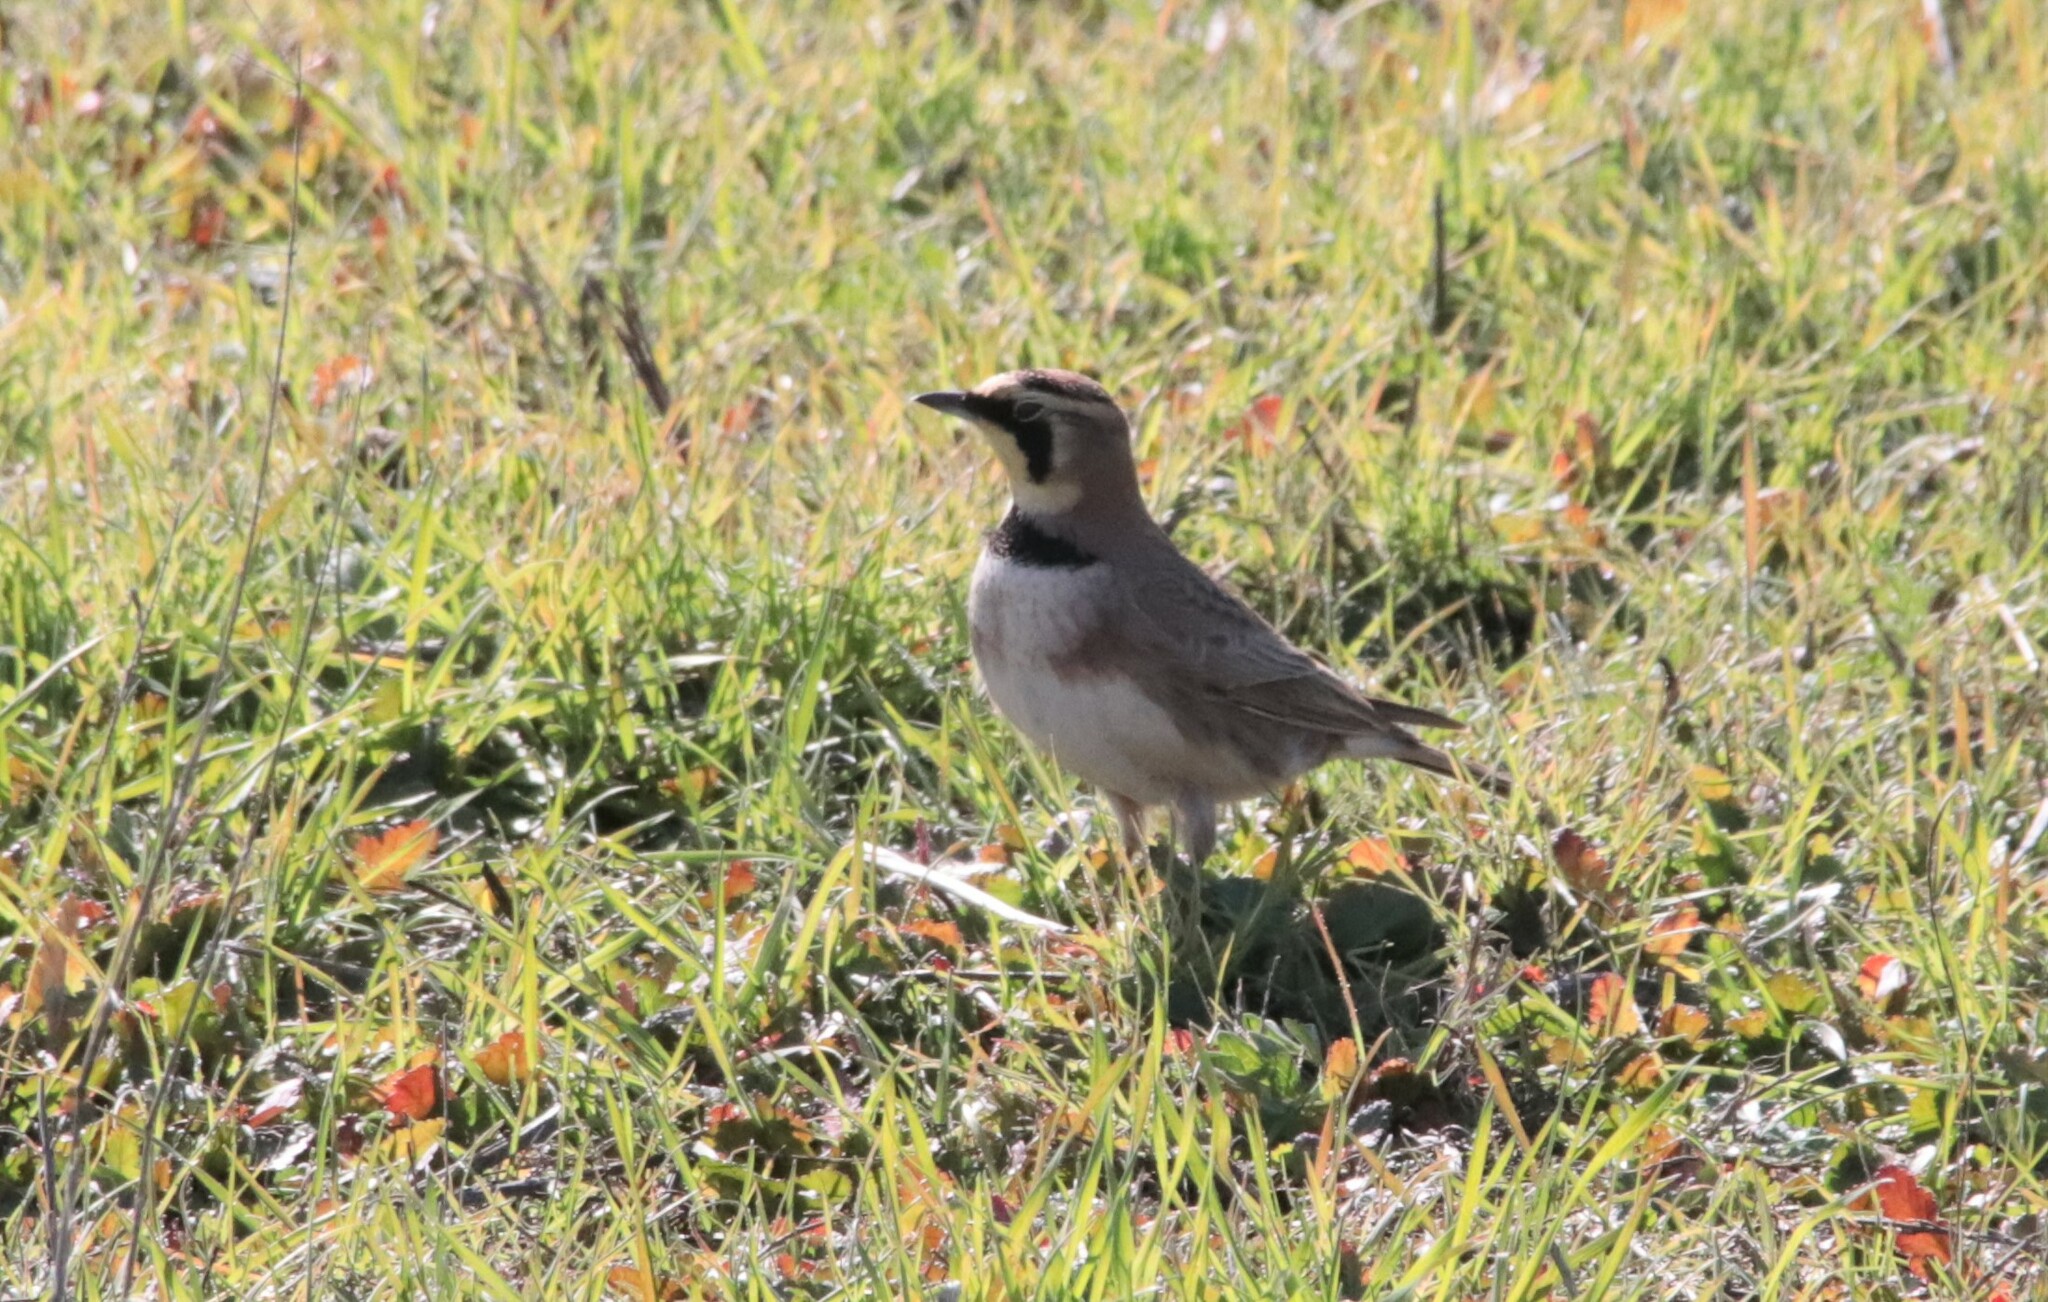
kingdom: Animalia
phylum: Chordata
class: Aves
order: Passeriformes
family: Alaudidae
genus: Eremophila
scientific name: Eremophila alpestris
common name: Horned lark
